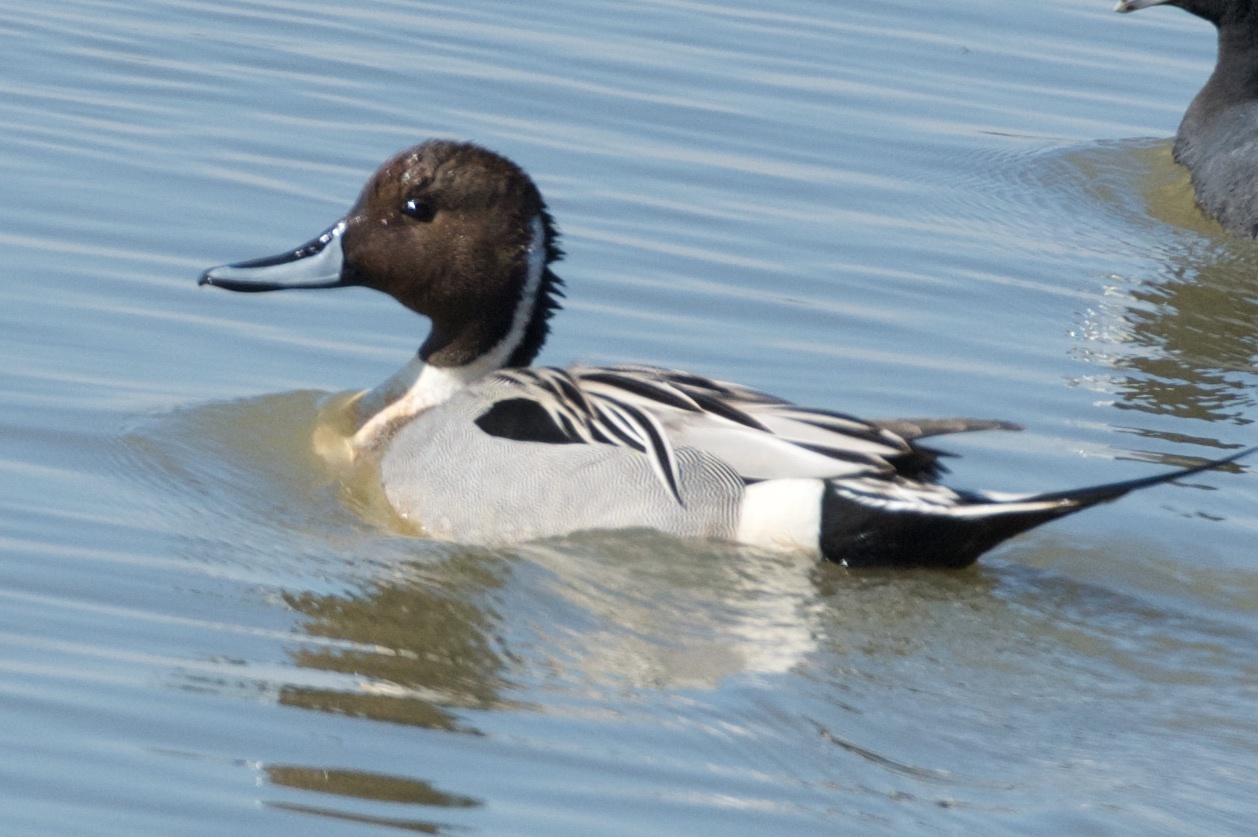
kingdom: Animalia
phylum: Chordata
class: Aves
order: Anseriformes
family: Anatidae
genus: Anas
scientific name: Anas acuta
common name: Northern pintail
